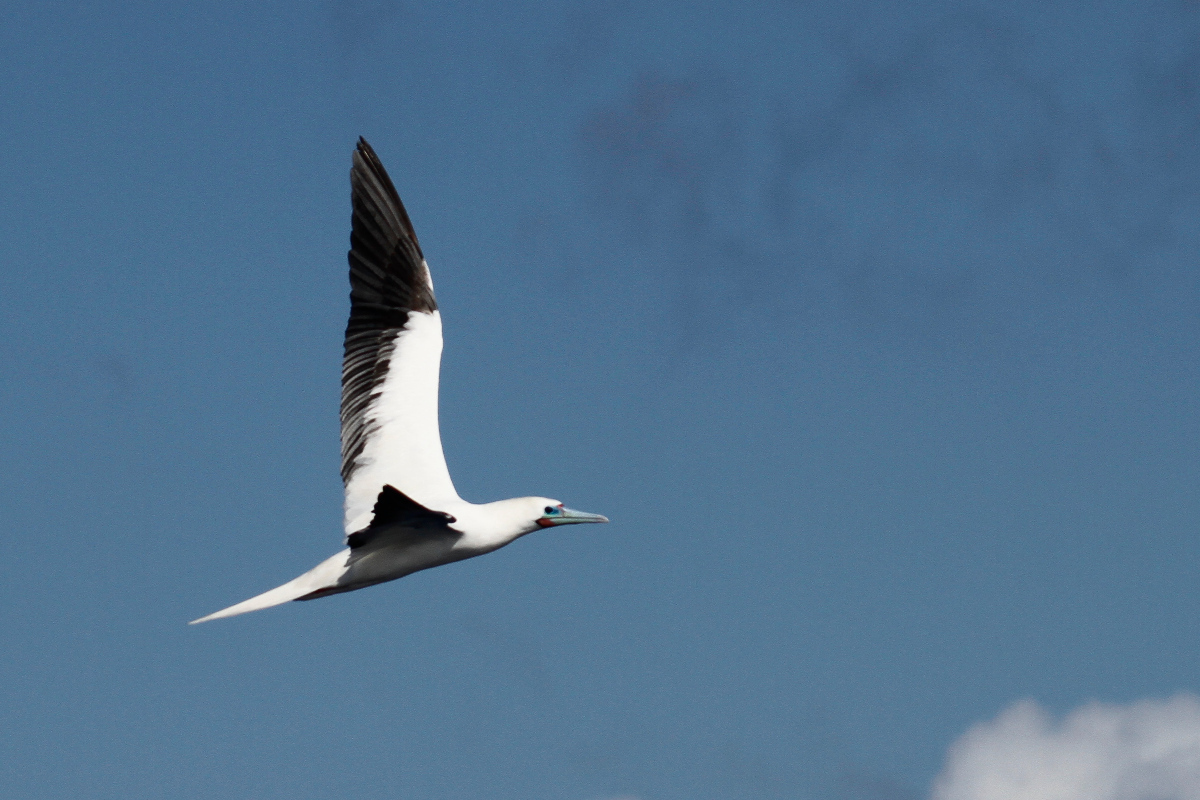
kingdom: Animalia
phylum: Chordata
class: Aves
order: Suliformes
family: Sulidae
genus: Sula
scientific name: Sula sula
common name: Red-footed booby
